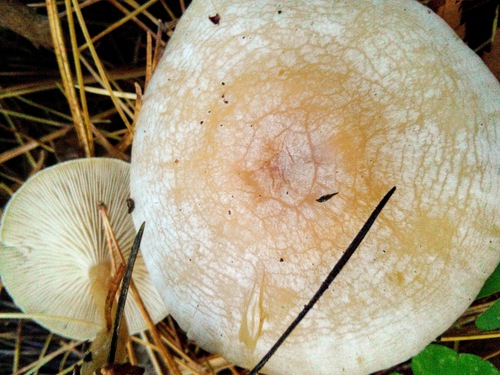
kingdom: Fungi
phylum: Basidiomycota
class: Agaricomycetes
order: Agaricales
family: Tricholomataceae
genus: Clitocybe
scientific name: Clitocybe
